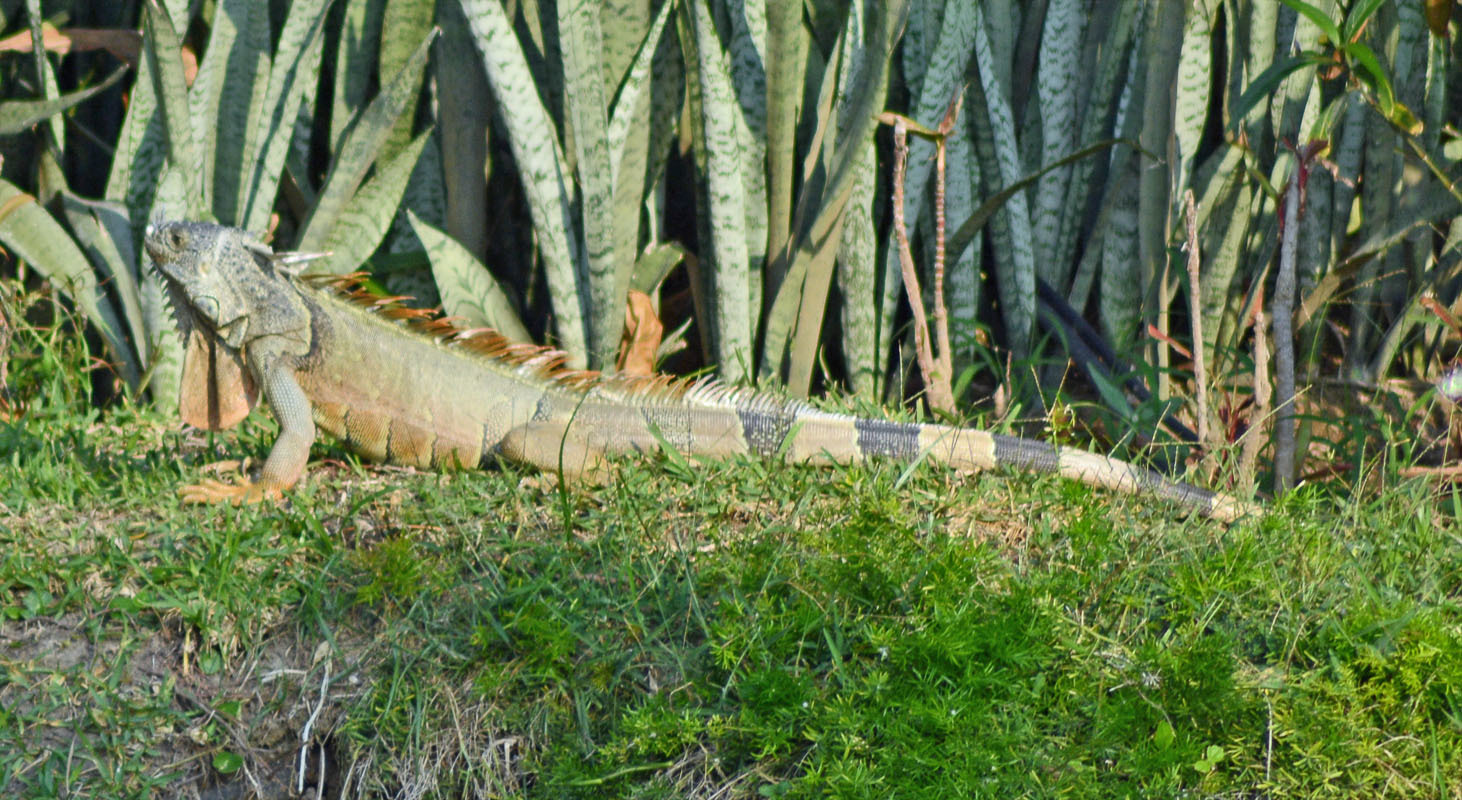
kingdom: Animalia
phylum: Chordata
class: Squamata
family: Iguanidae
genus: Iguana
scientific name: Iguana iguana
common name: Green iguana
